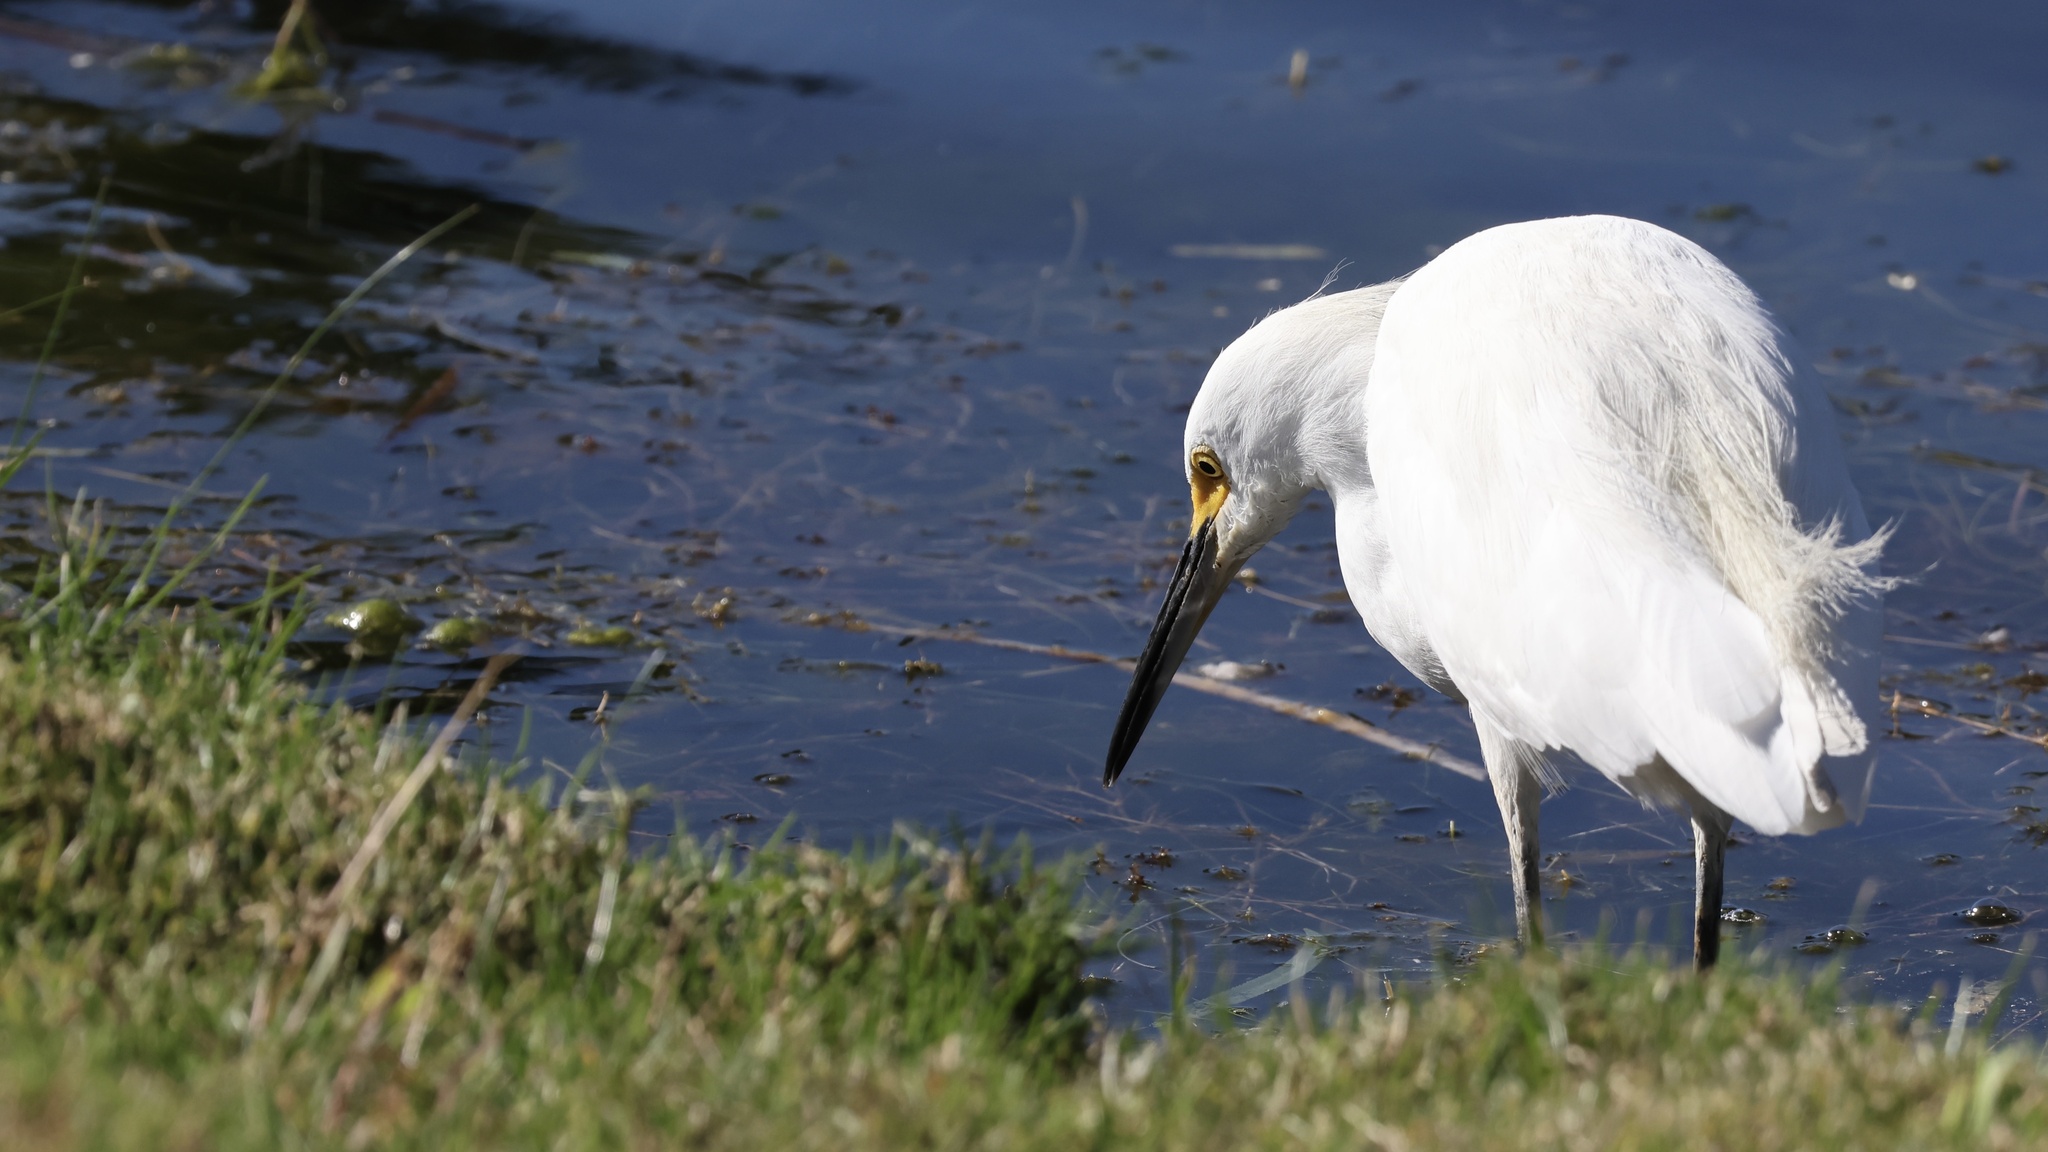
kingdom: Animalia
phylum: Chordata
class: Aves
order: Pelecaniformes
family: Ardeidae
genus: Egretta
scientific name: Egretta thula
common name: Snowy egret
